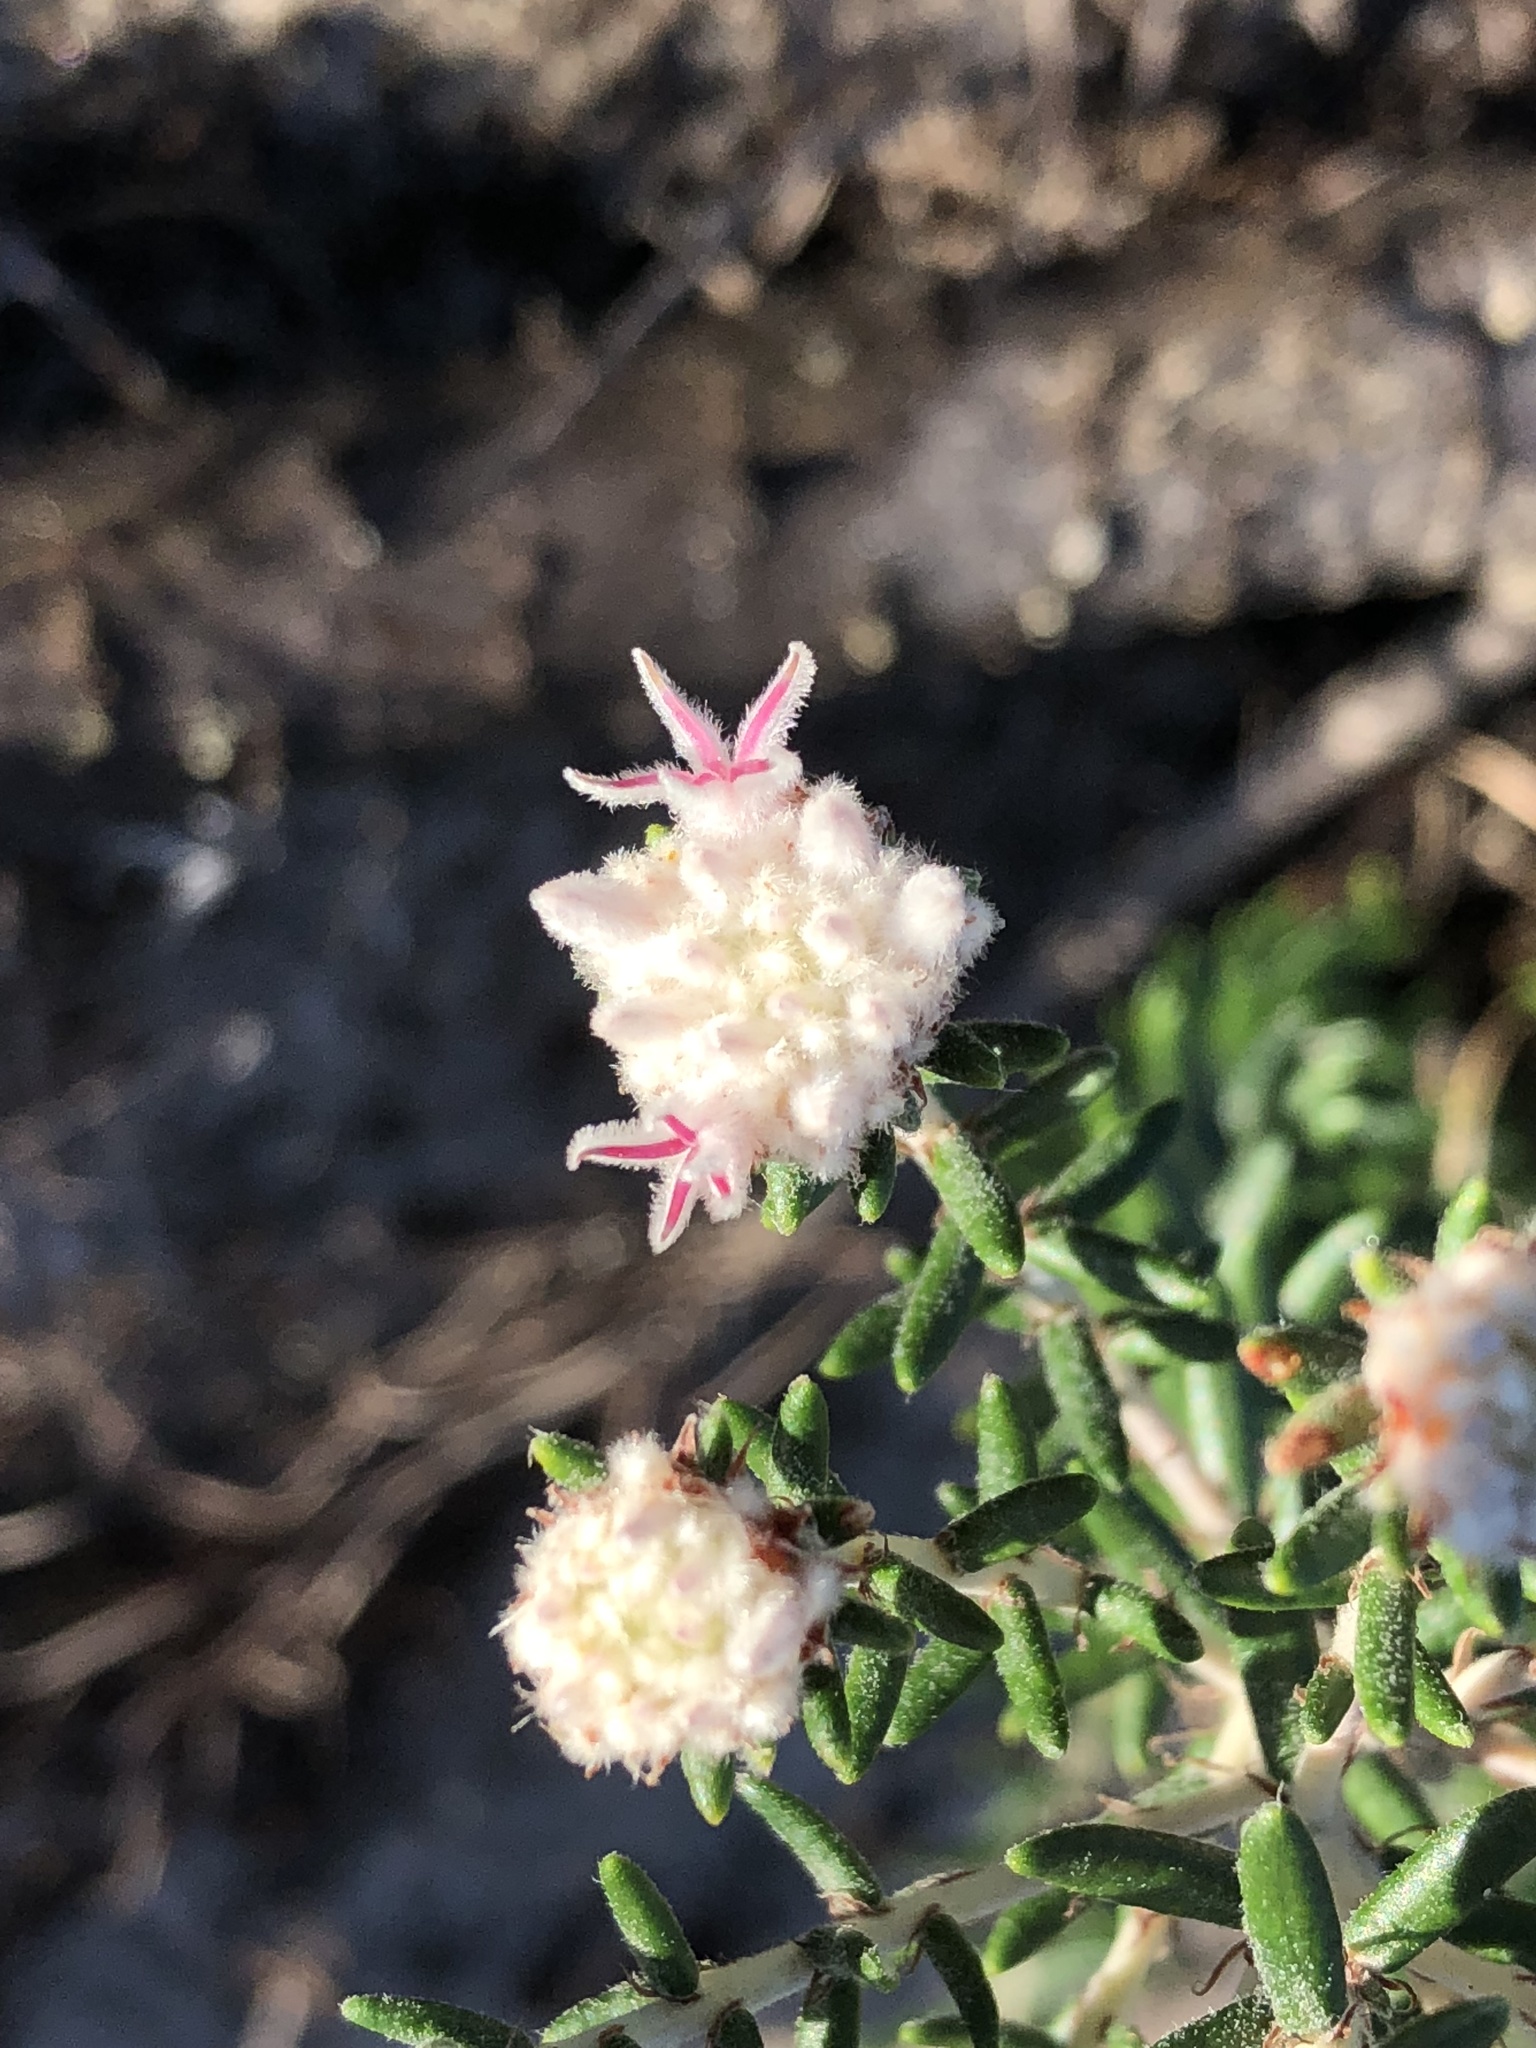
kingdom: Plantae
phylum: Tracheophyta
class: Magnoliopsida
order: Rosales
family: Rhamnaceae
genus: Trichocephalus
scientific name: Trichocephalus stipularis
